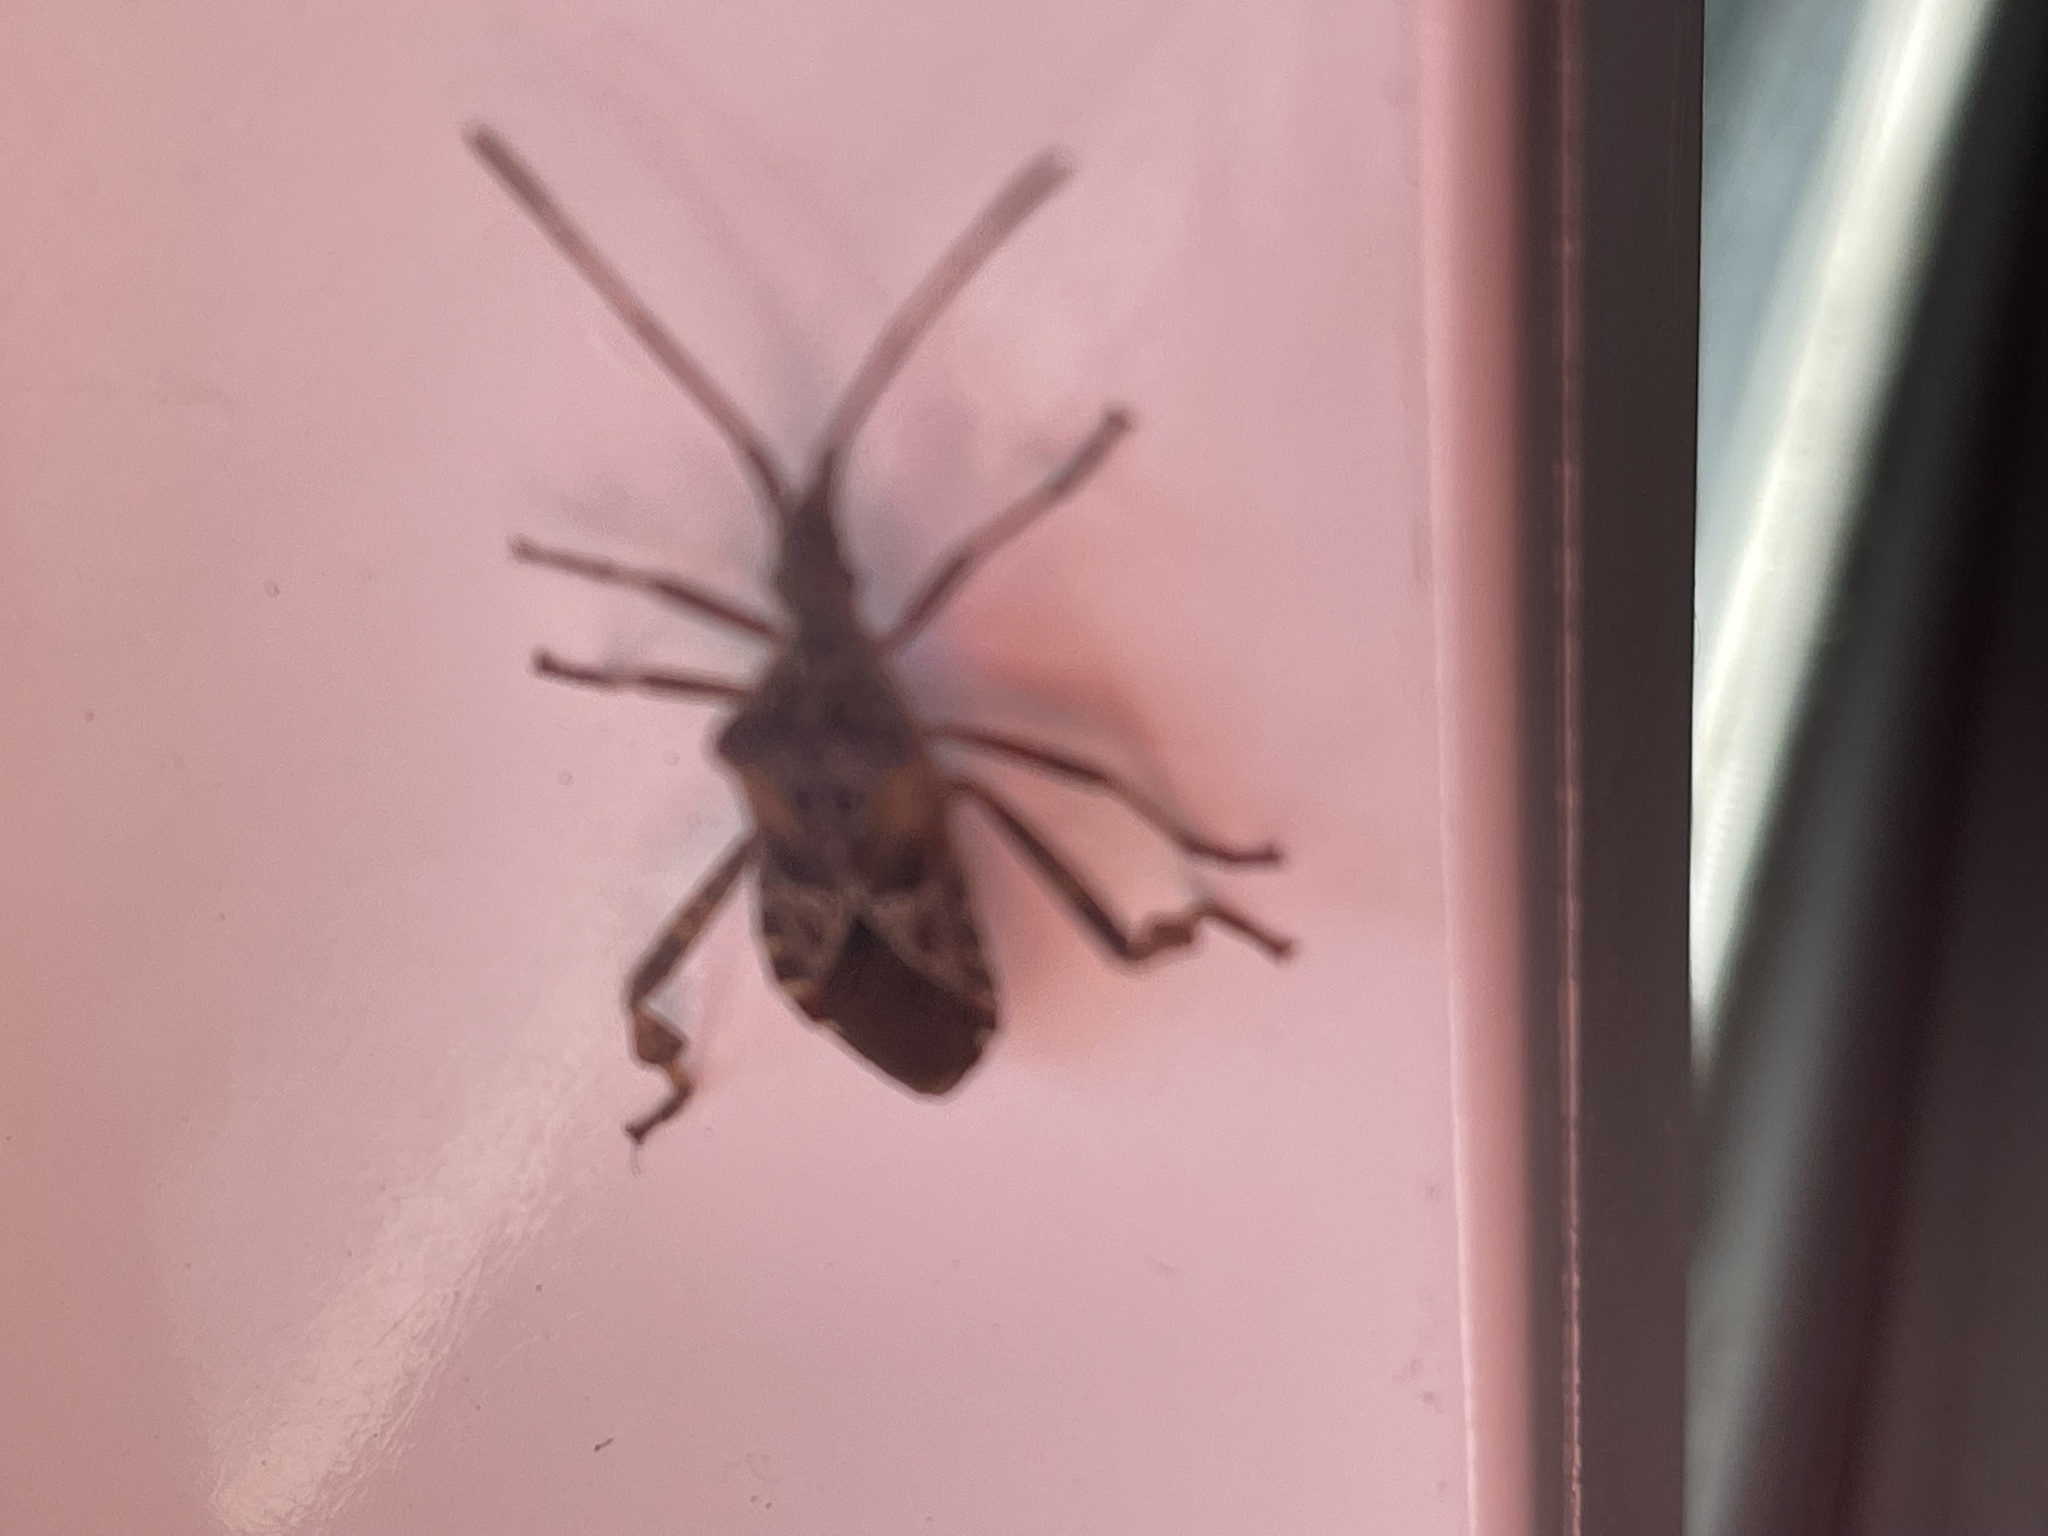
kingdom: Animalia
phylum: Arthropoda
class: Insecta
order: Hemiptera
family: Coreidae
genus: Leptoglossus
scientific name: Leptoglossus occidentalis
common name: Western conifer-seed bug
